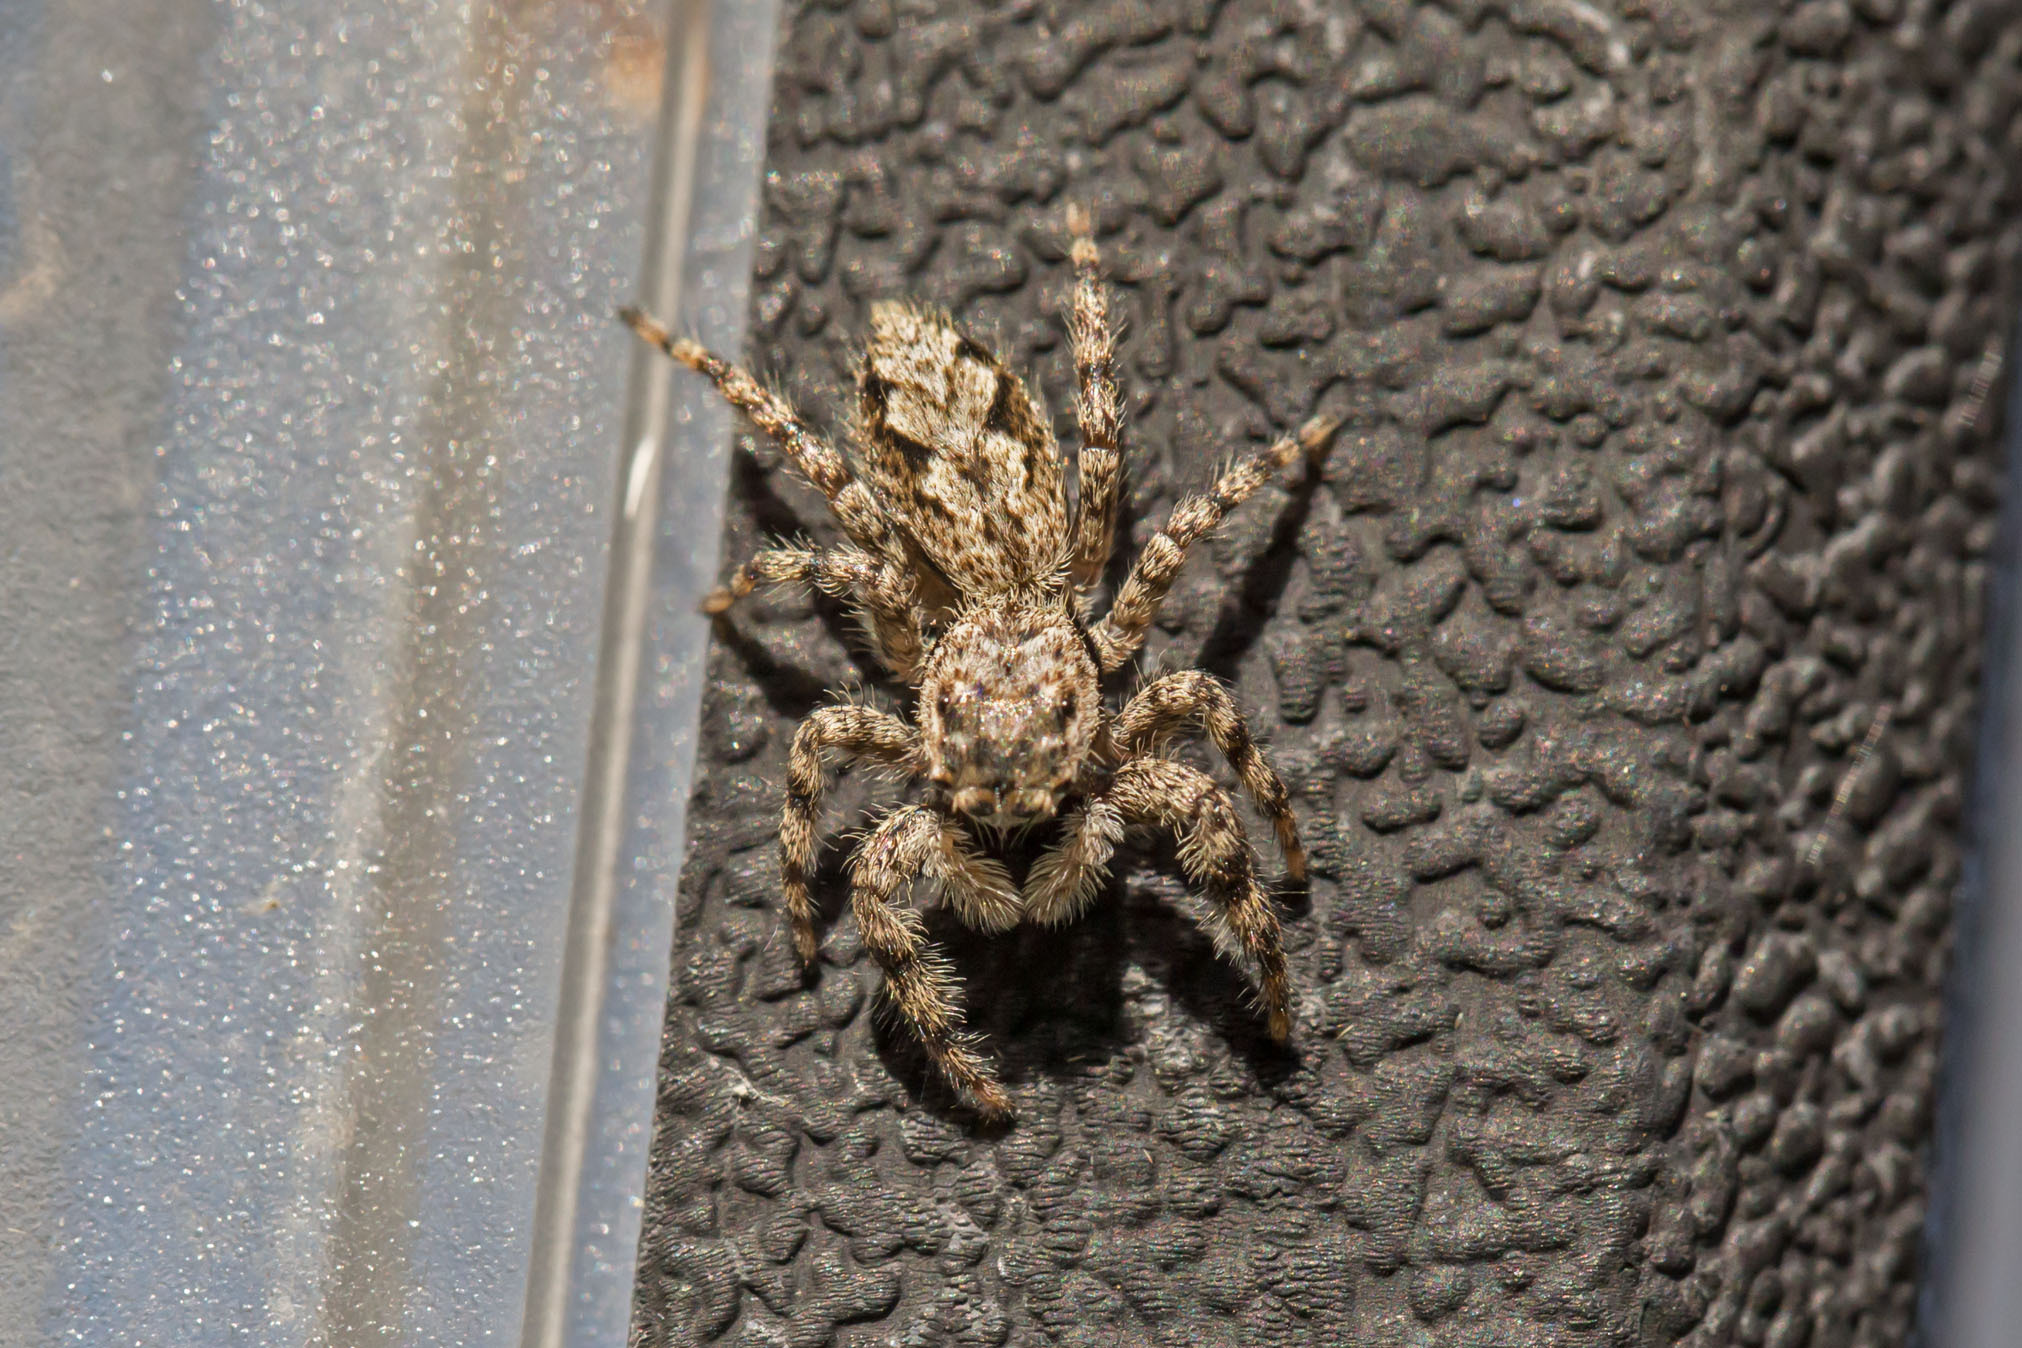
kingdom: Animalia
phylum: Arthropoda
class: Arachnida
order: Araneae
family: Salticidae
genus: Platycryptus
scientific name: Platycryptus undatus
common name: Tan jumping spider
